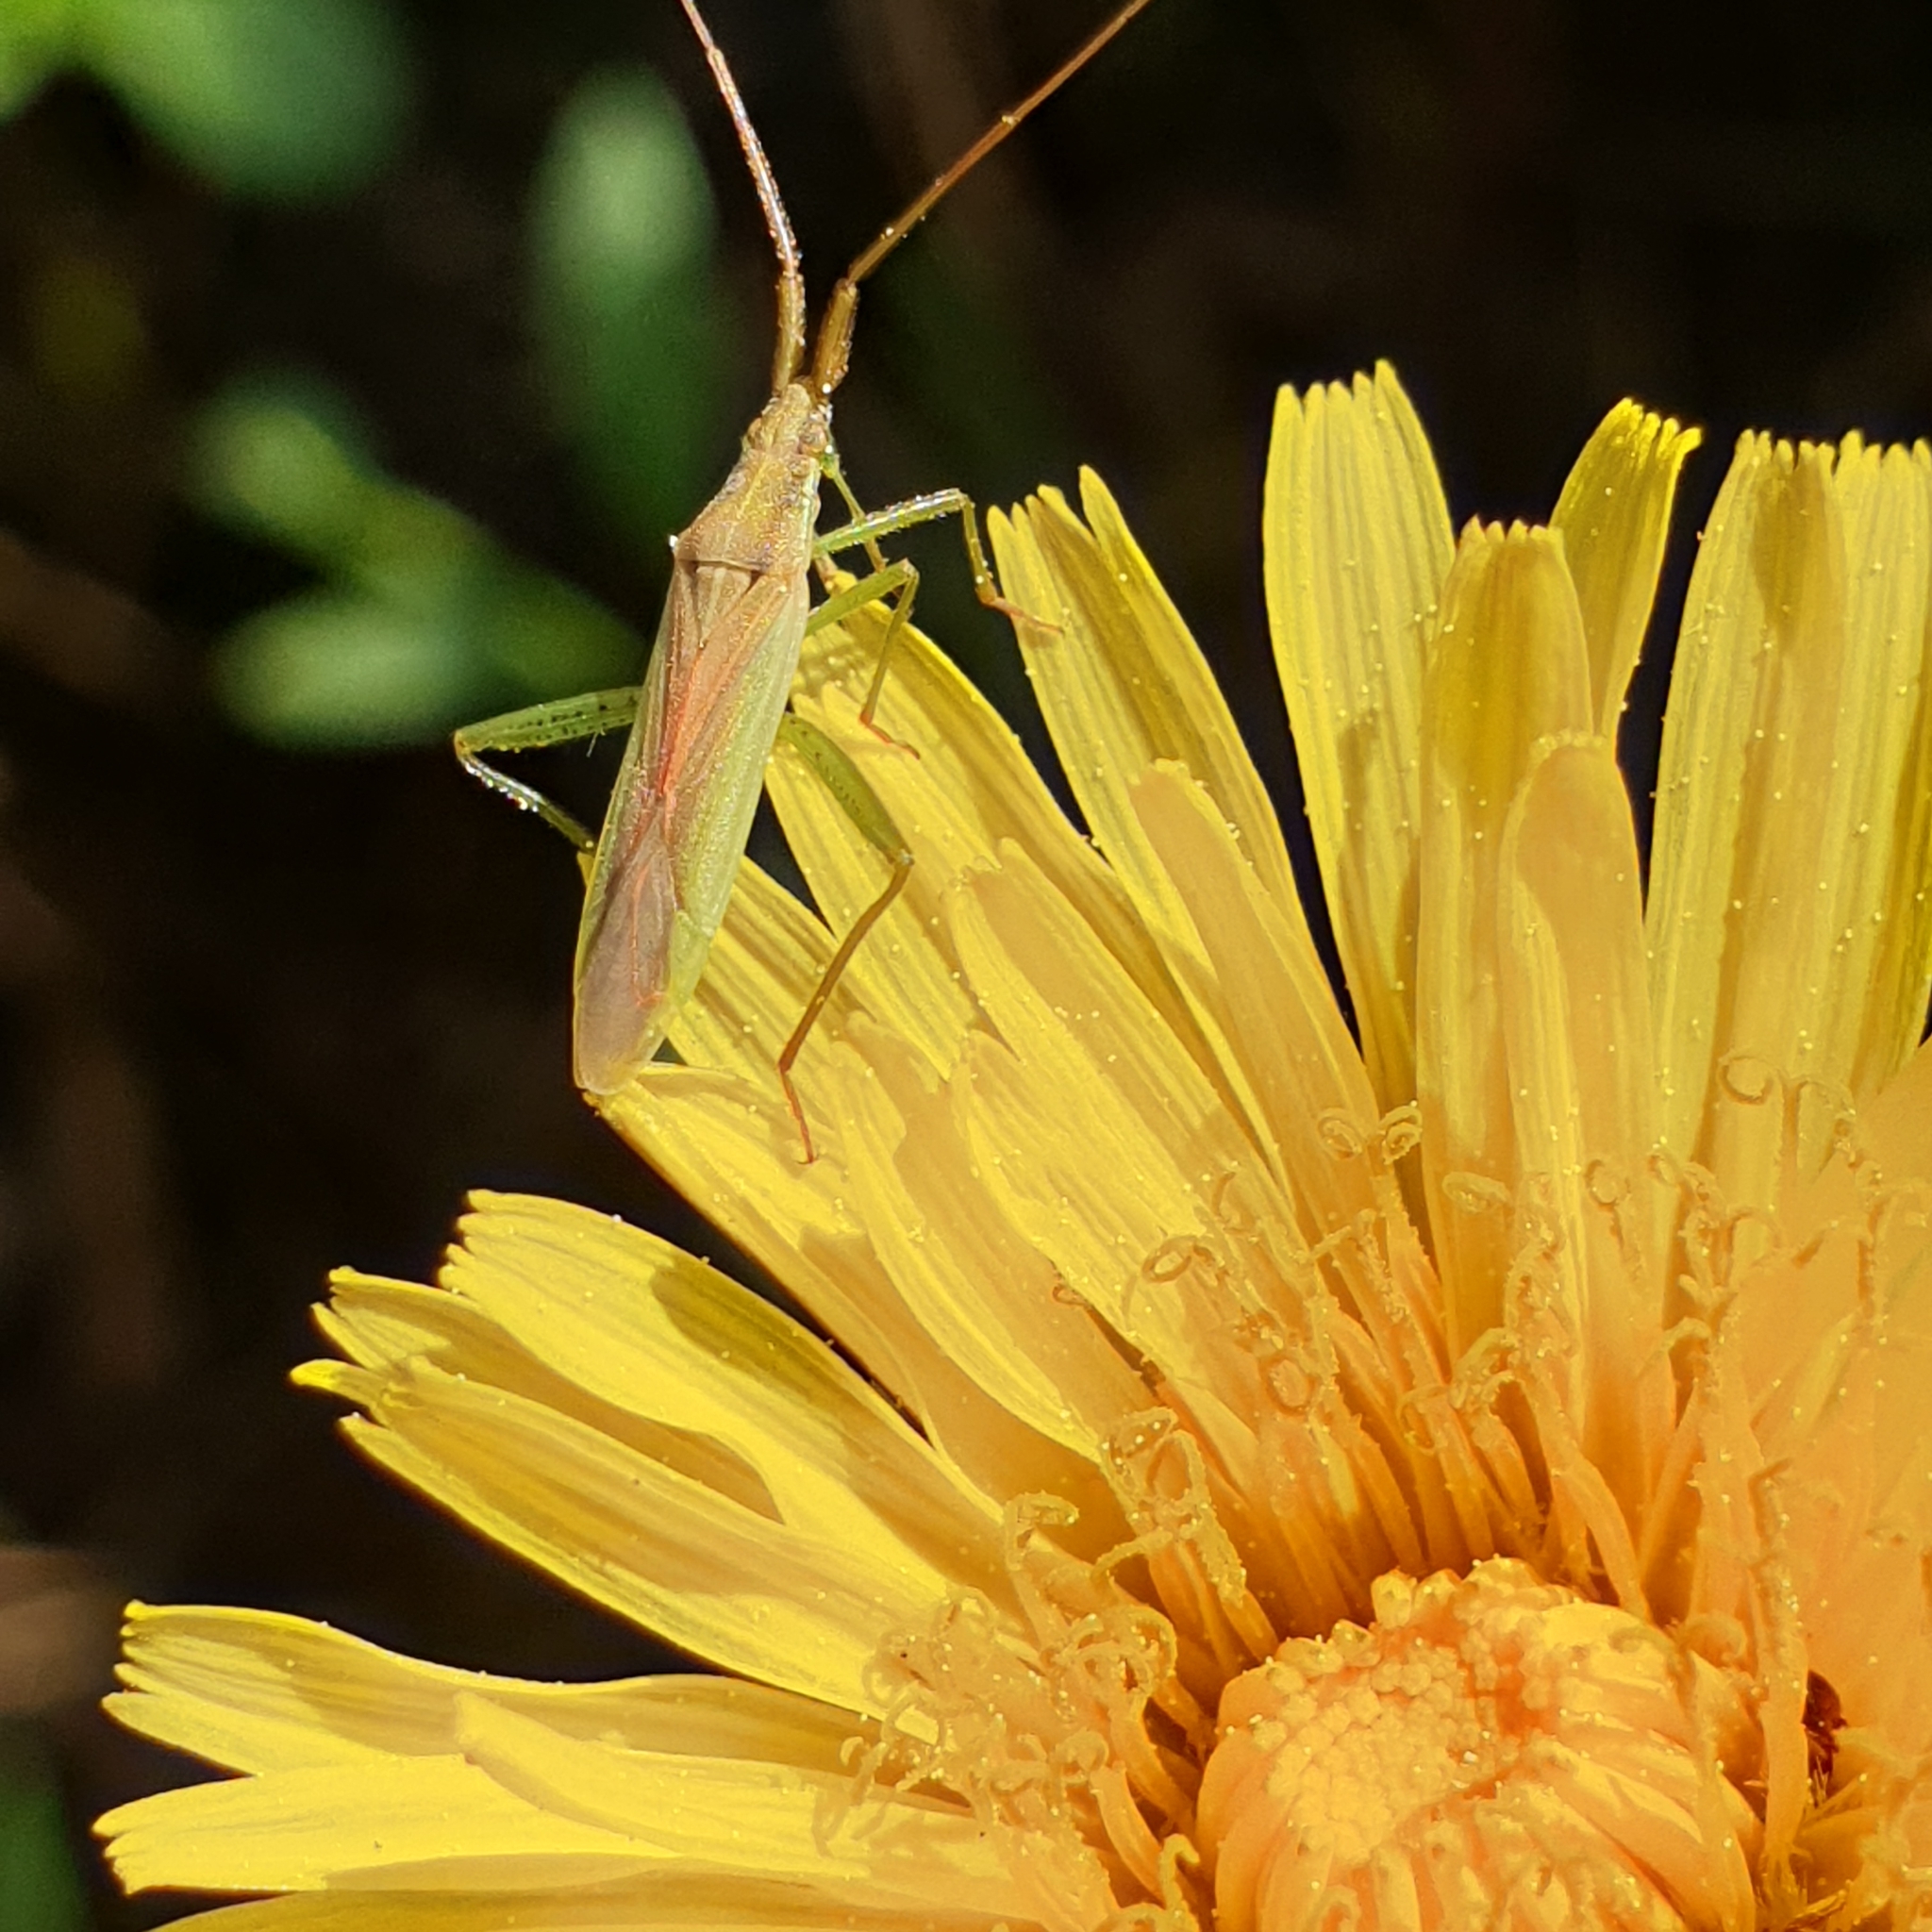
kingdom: Animalia
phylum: Arthropoda
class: Insecta
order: Hemiptera
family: Miridae
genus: Stenodema
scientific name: Stenodema laevigata
